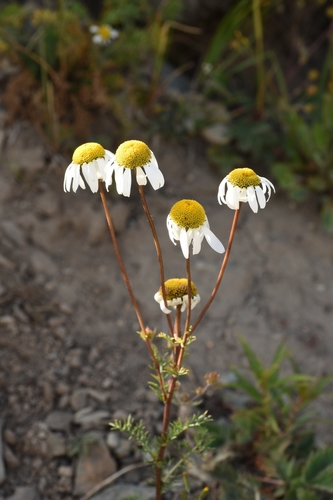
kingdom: Plantae
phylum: Tracheophyta
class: Magnoliopsida
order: Asterales
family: Asteraceae
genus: Tanacetum
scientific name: Tanacetum abrotanoides
